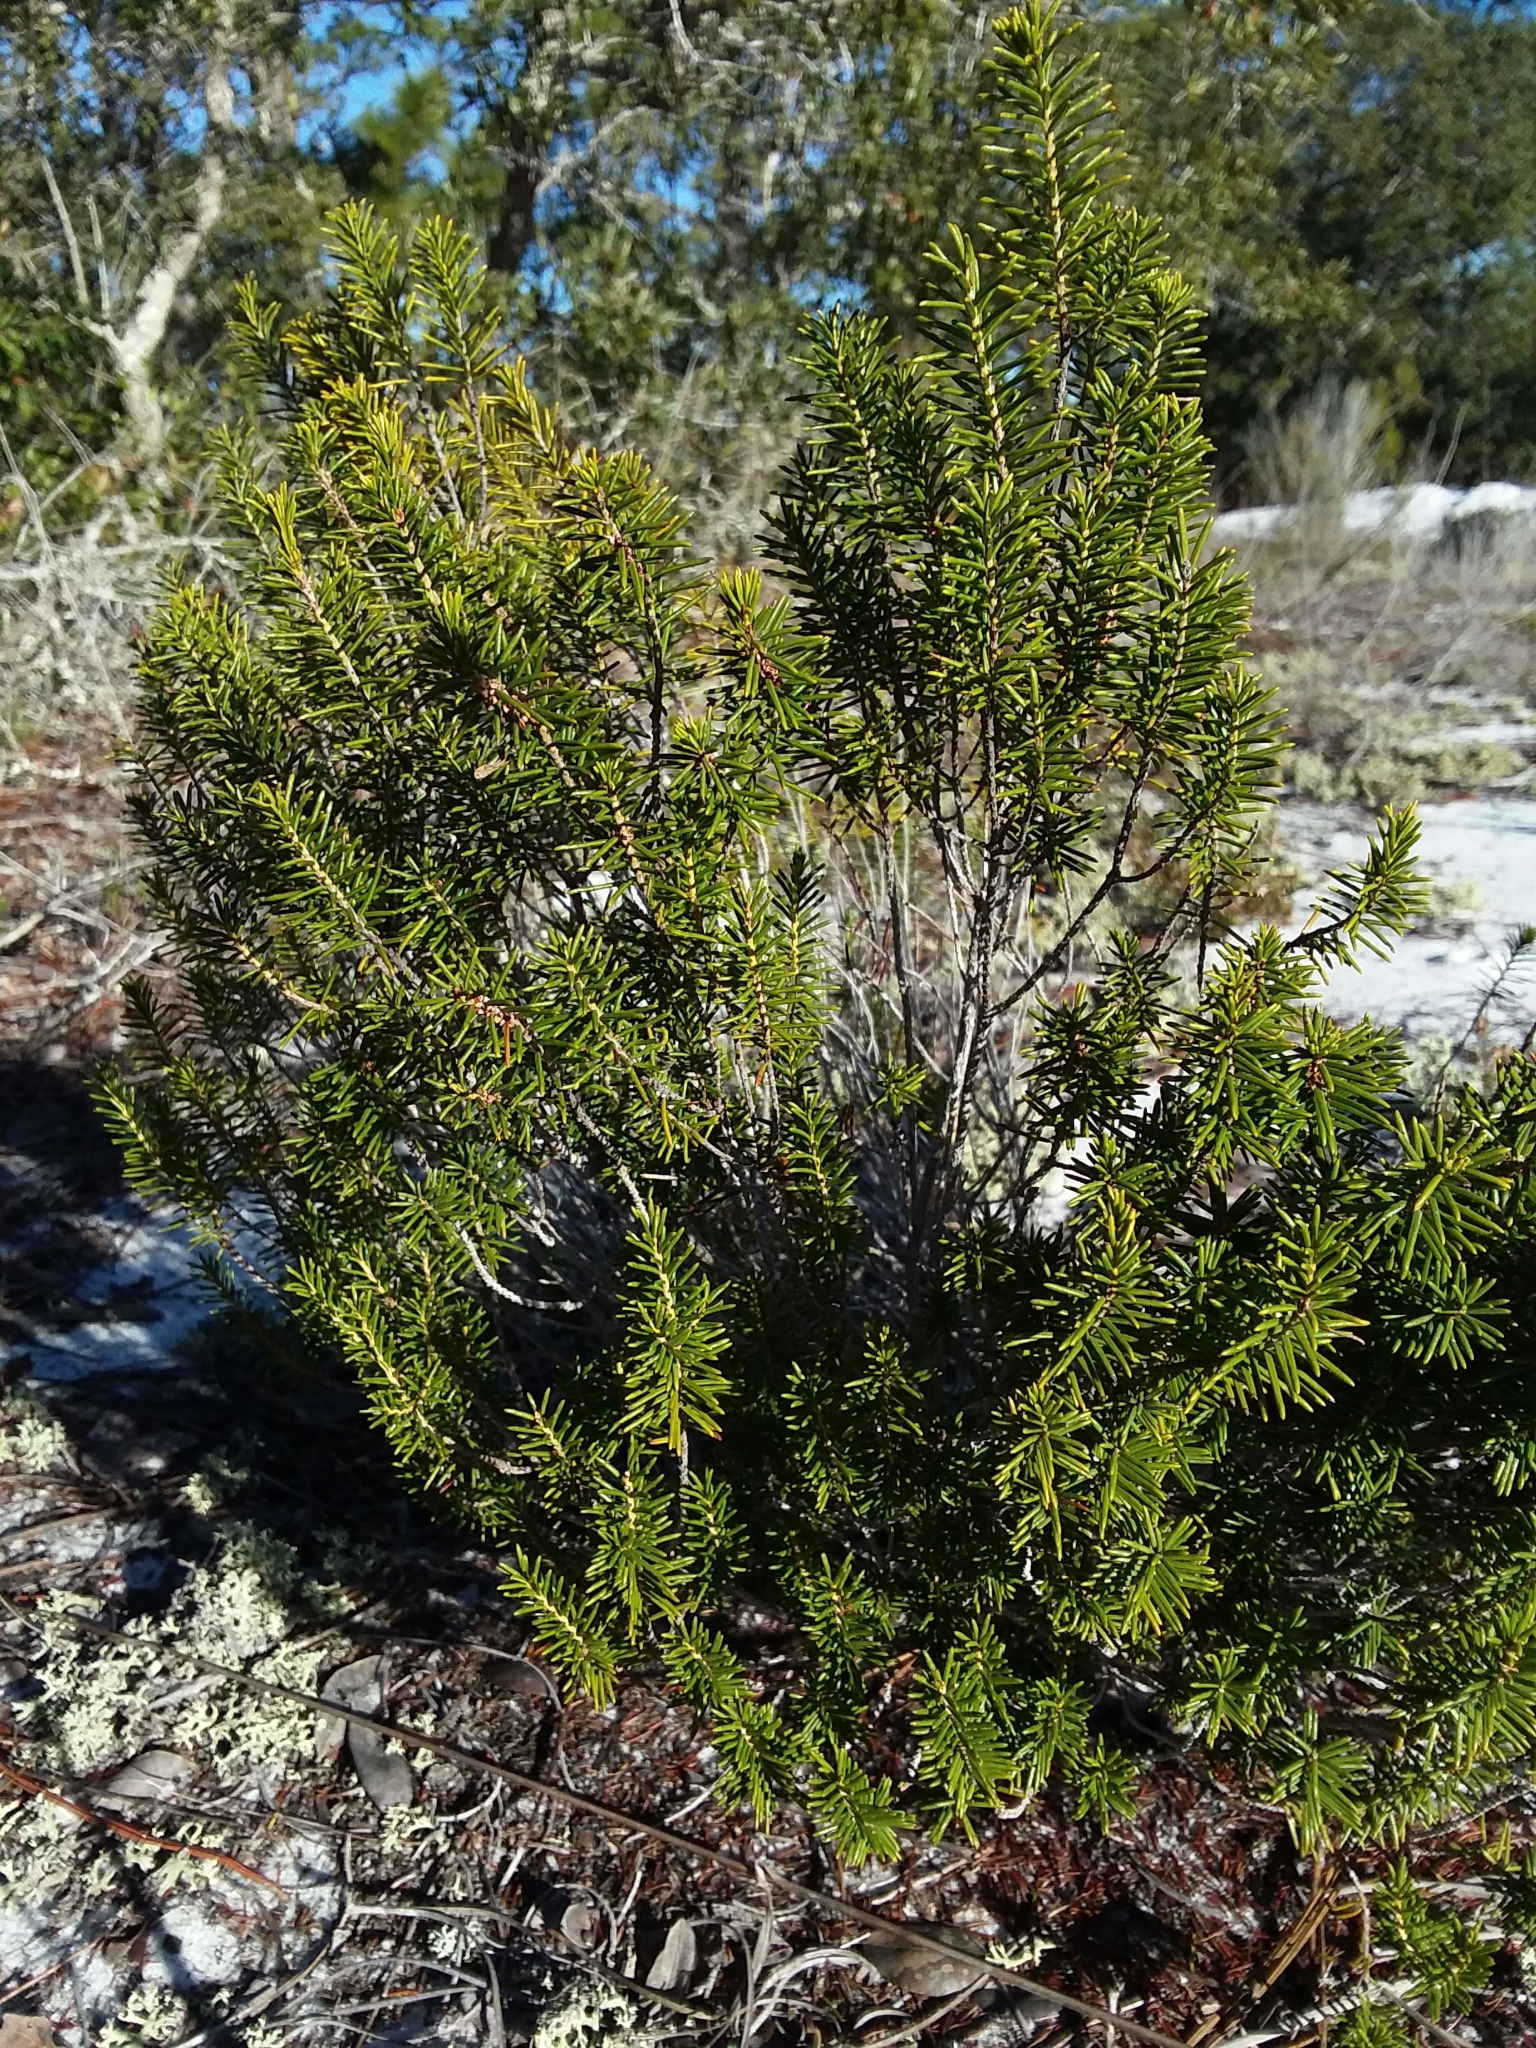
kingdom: Plantae
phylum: Tracheophyta
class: Magnoliopsida
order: Ericales
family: Ericaceae
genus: Ceratiola
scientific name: Ceratiola ericoides
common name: Sandhill-rosemary
